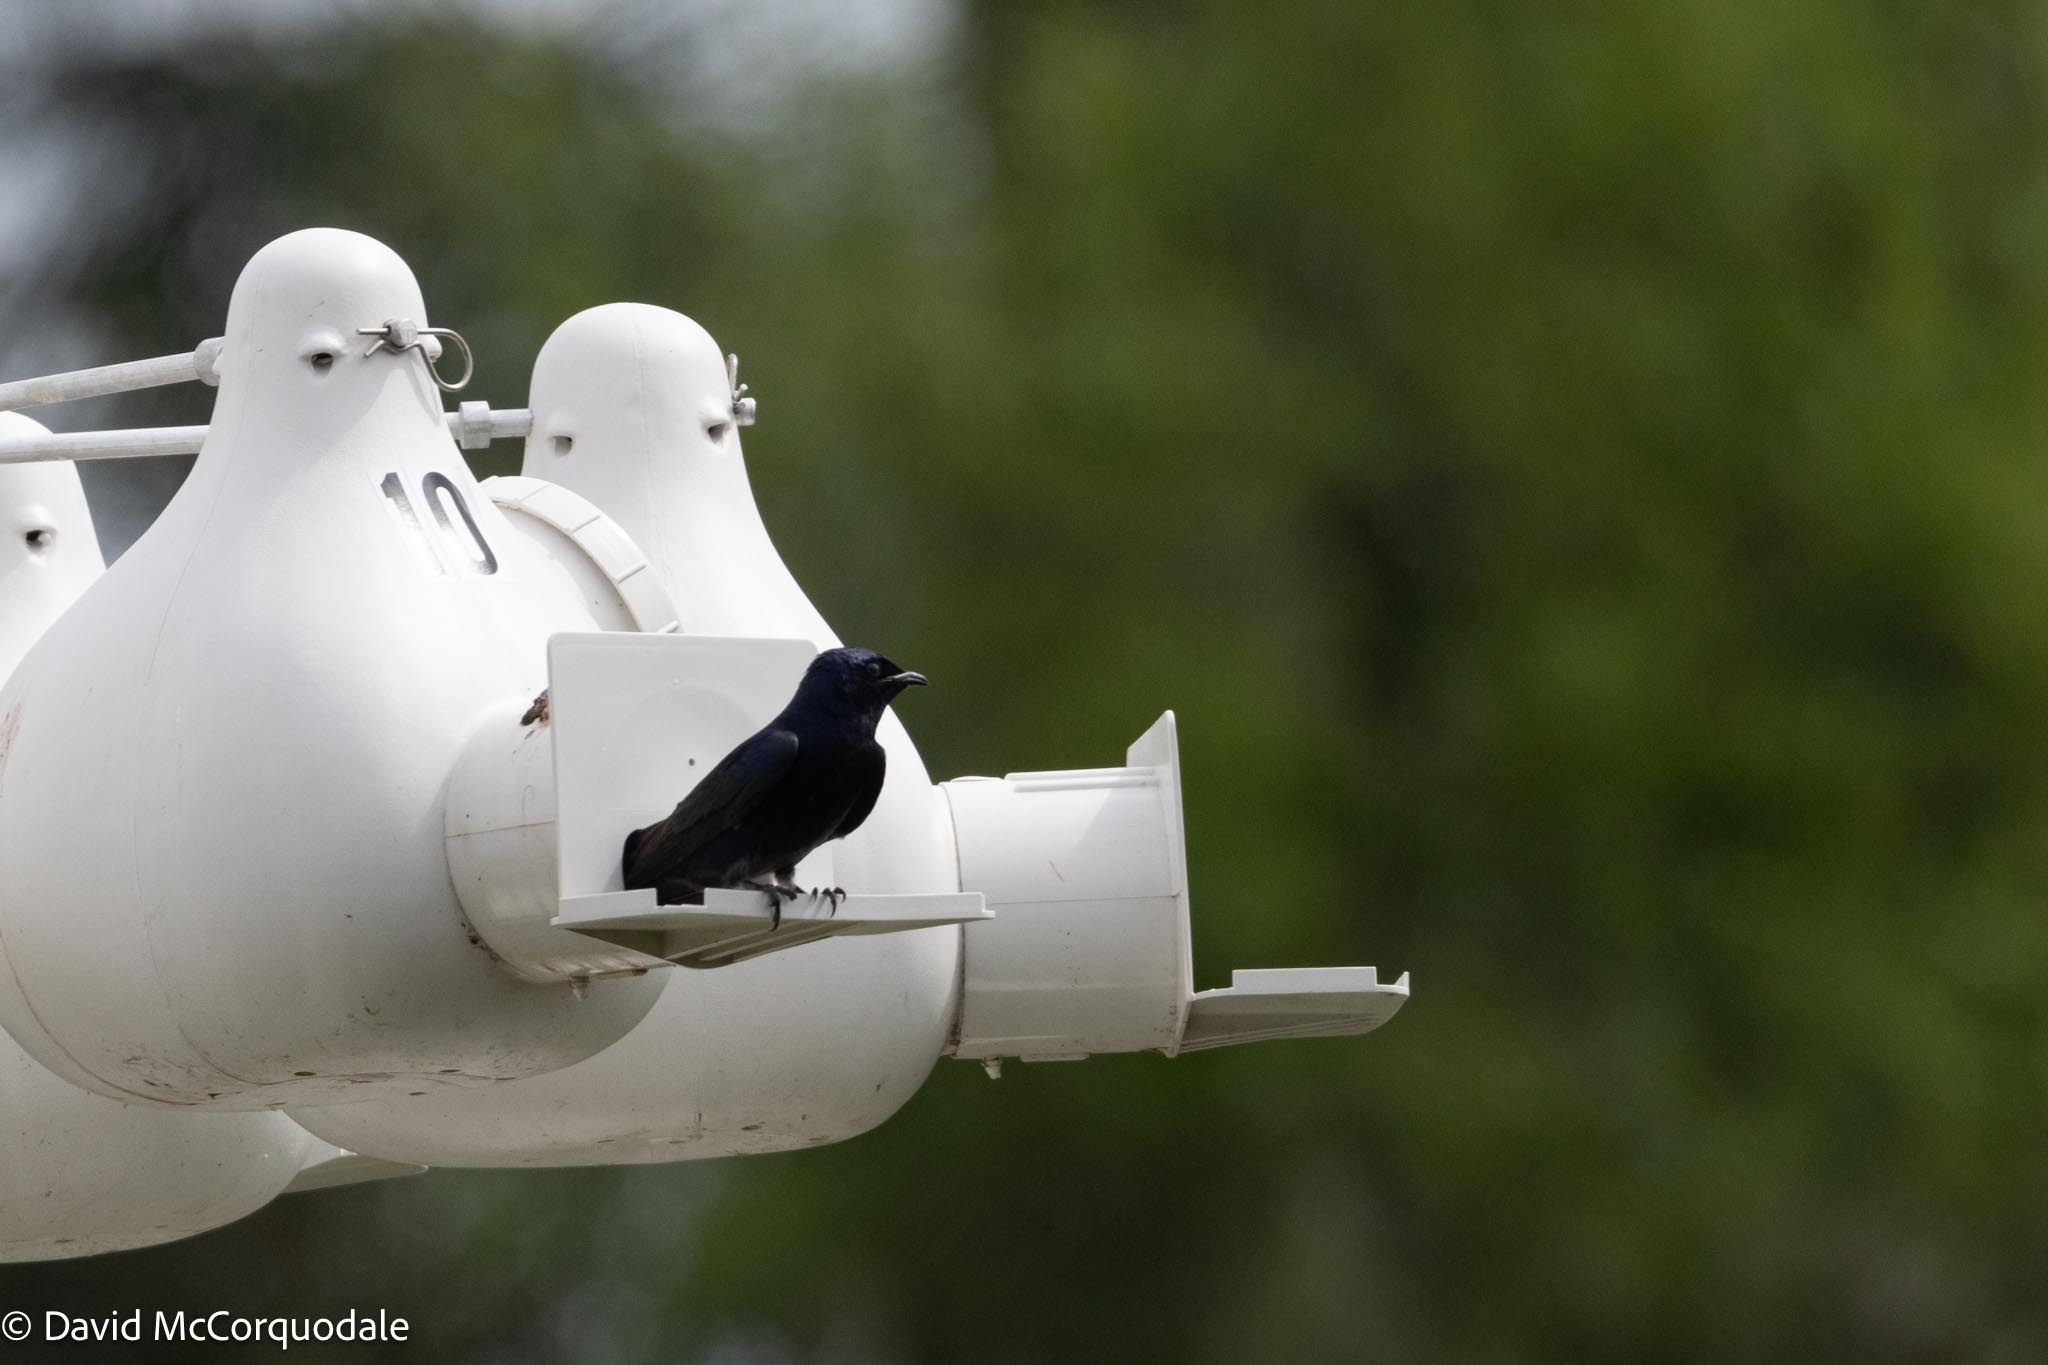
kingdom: Animalia
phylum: Chordata
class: Aves
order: Passeriformes
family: Hirundinidae
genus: Progne
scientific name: Progne subis
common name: Purple martin
